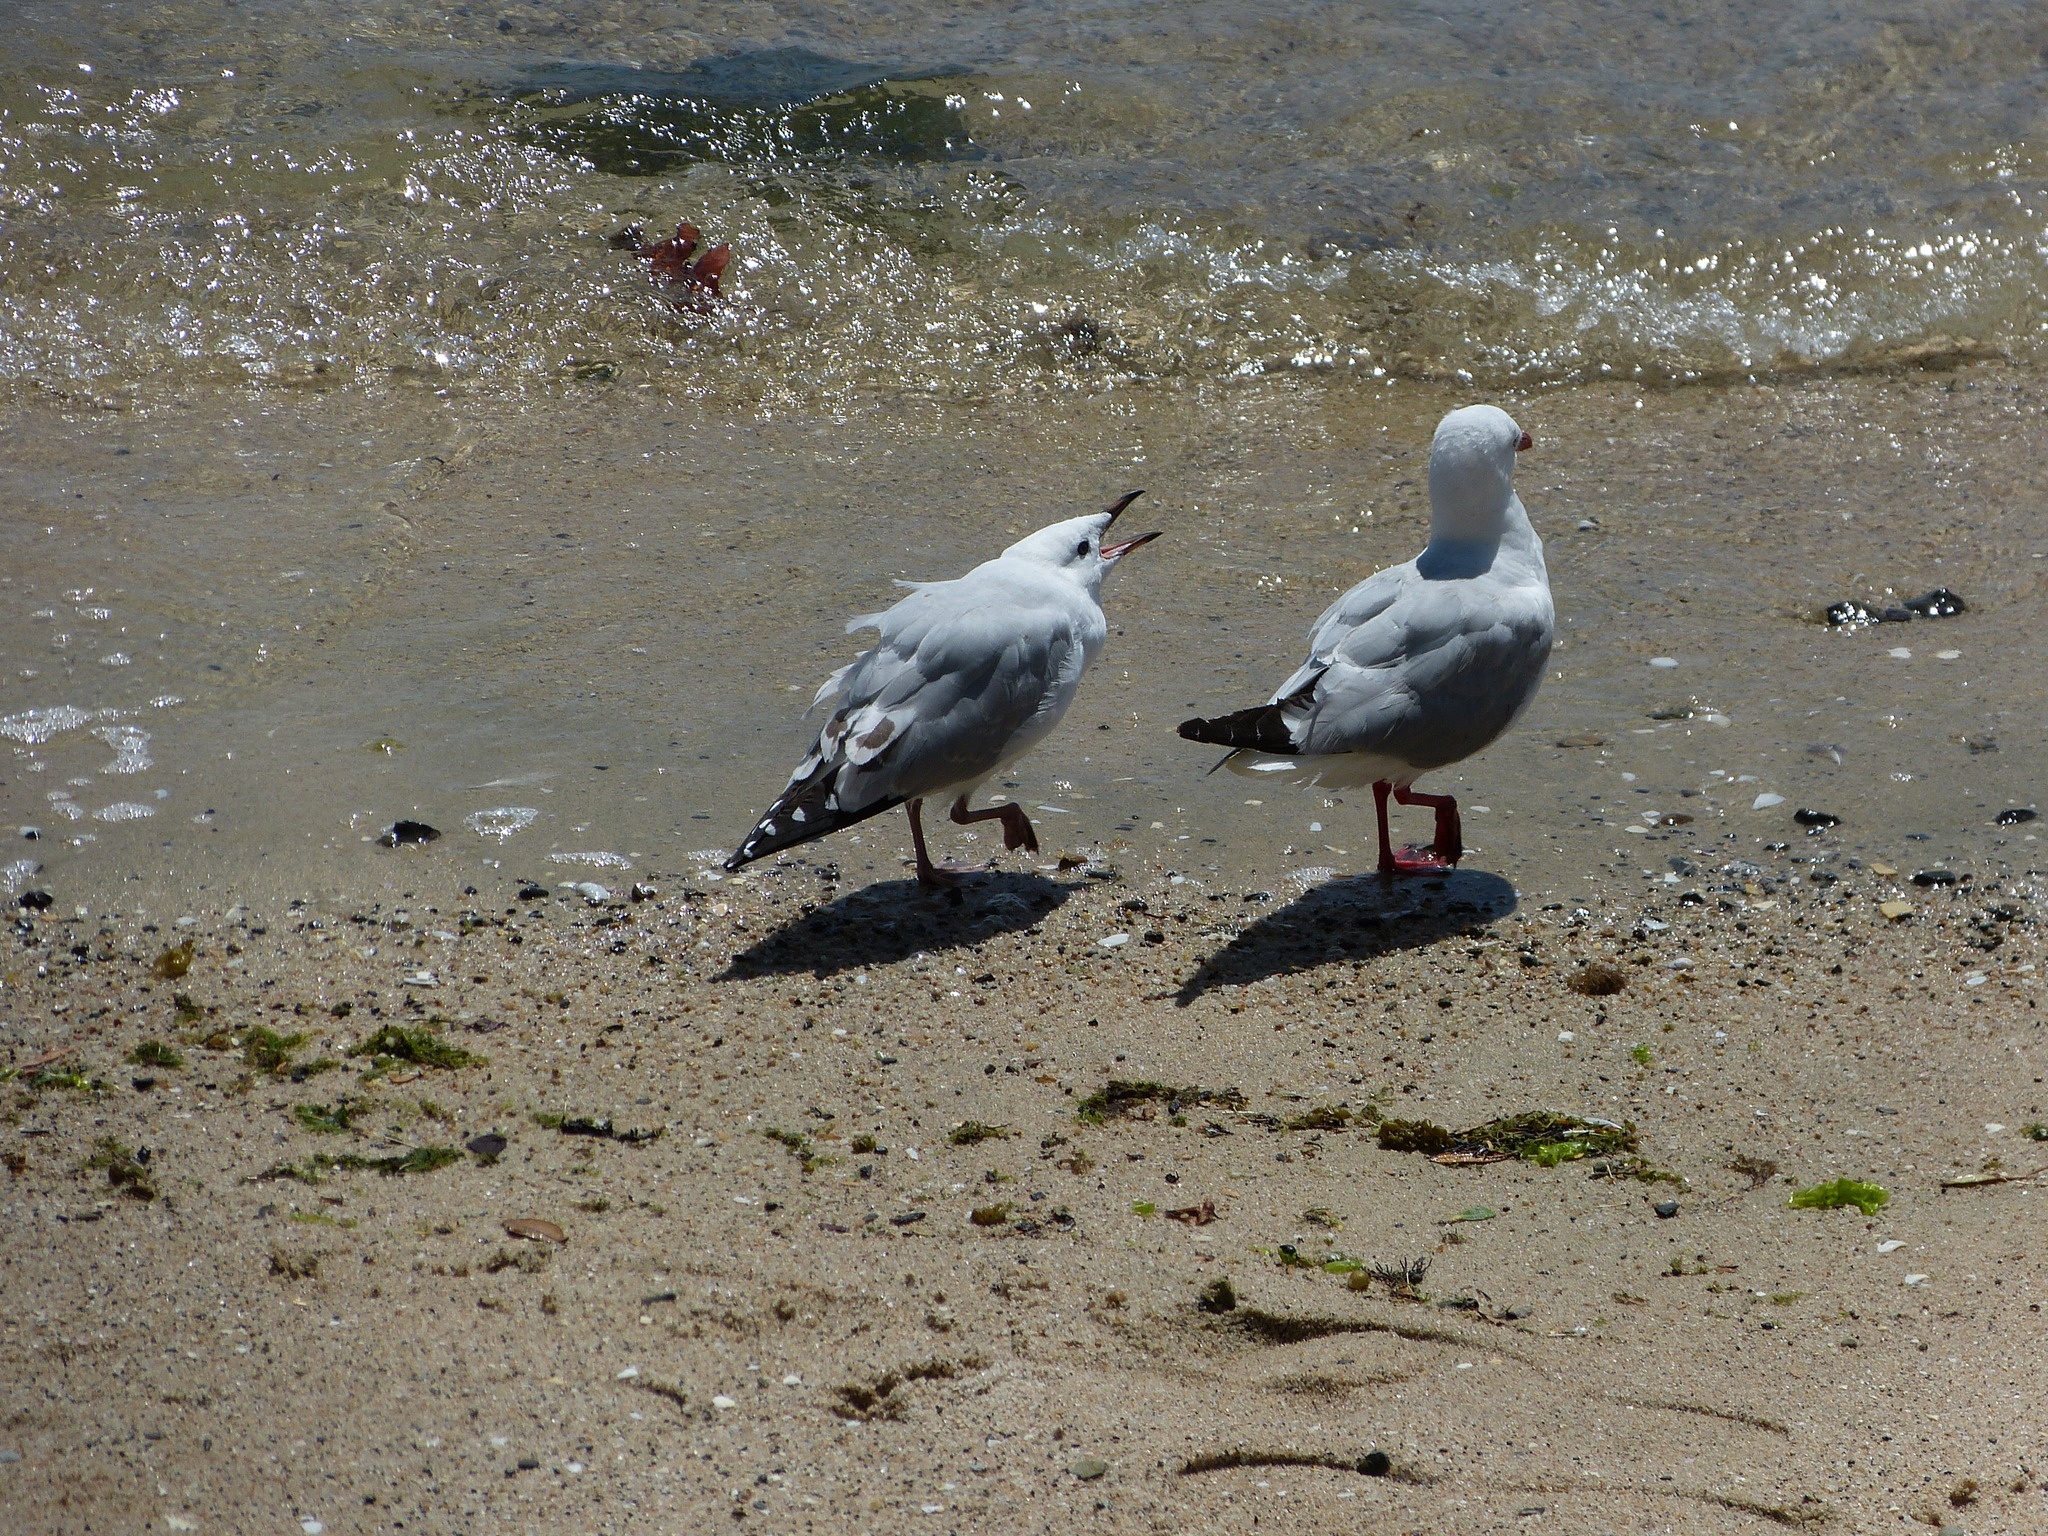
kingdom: Animalia
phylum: Chordata
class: Aves
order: Charadriiformes
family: Laridae
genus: Chroicocephalus
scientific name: Chroicocephalus novaehollandiae
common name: Silver gull
